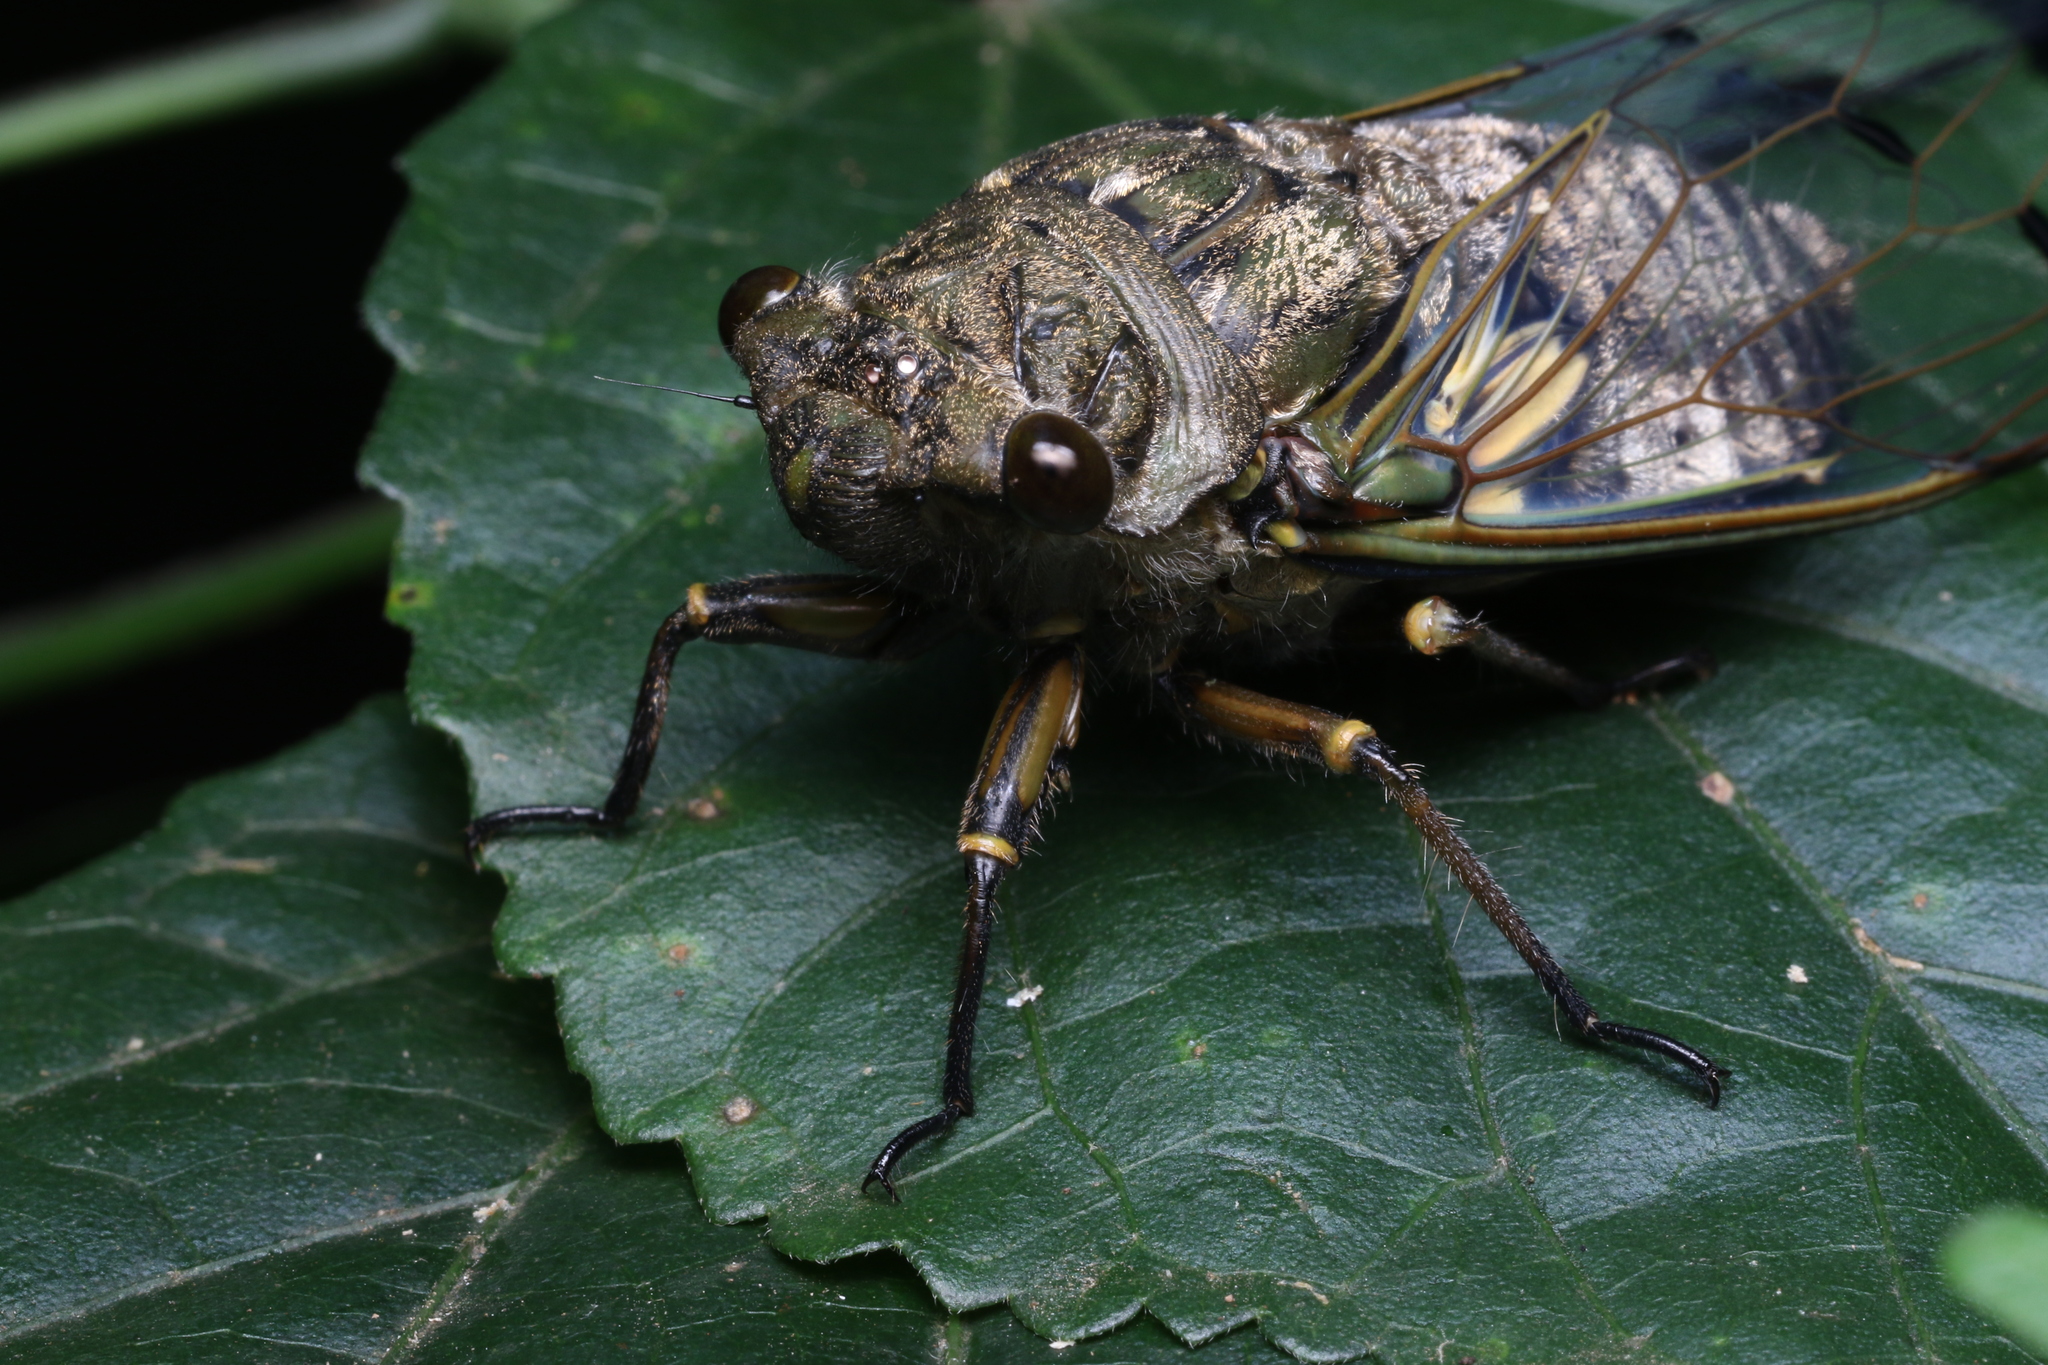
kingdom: Animalia
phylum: Arthropoda
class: Insecta
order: Hemiptera
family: Cicadidae
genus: Quesada
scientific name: Quesada sodalis
